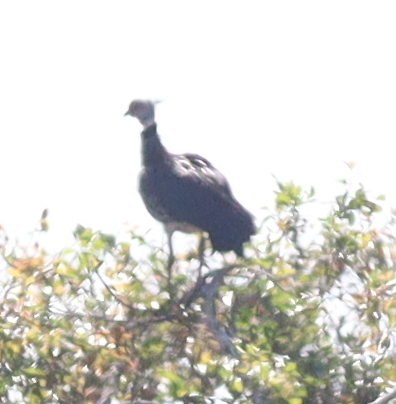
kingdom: Animalia
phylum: Chordata
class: Aves
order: Anseriformes
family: Anhimidae
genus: Chauna
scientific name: Chauna torquata
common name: Southern screamer
